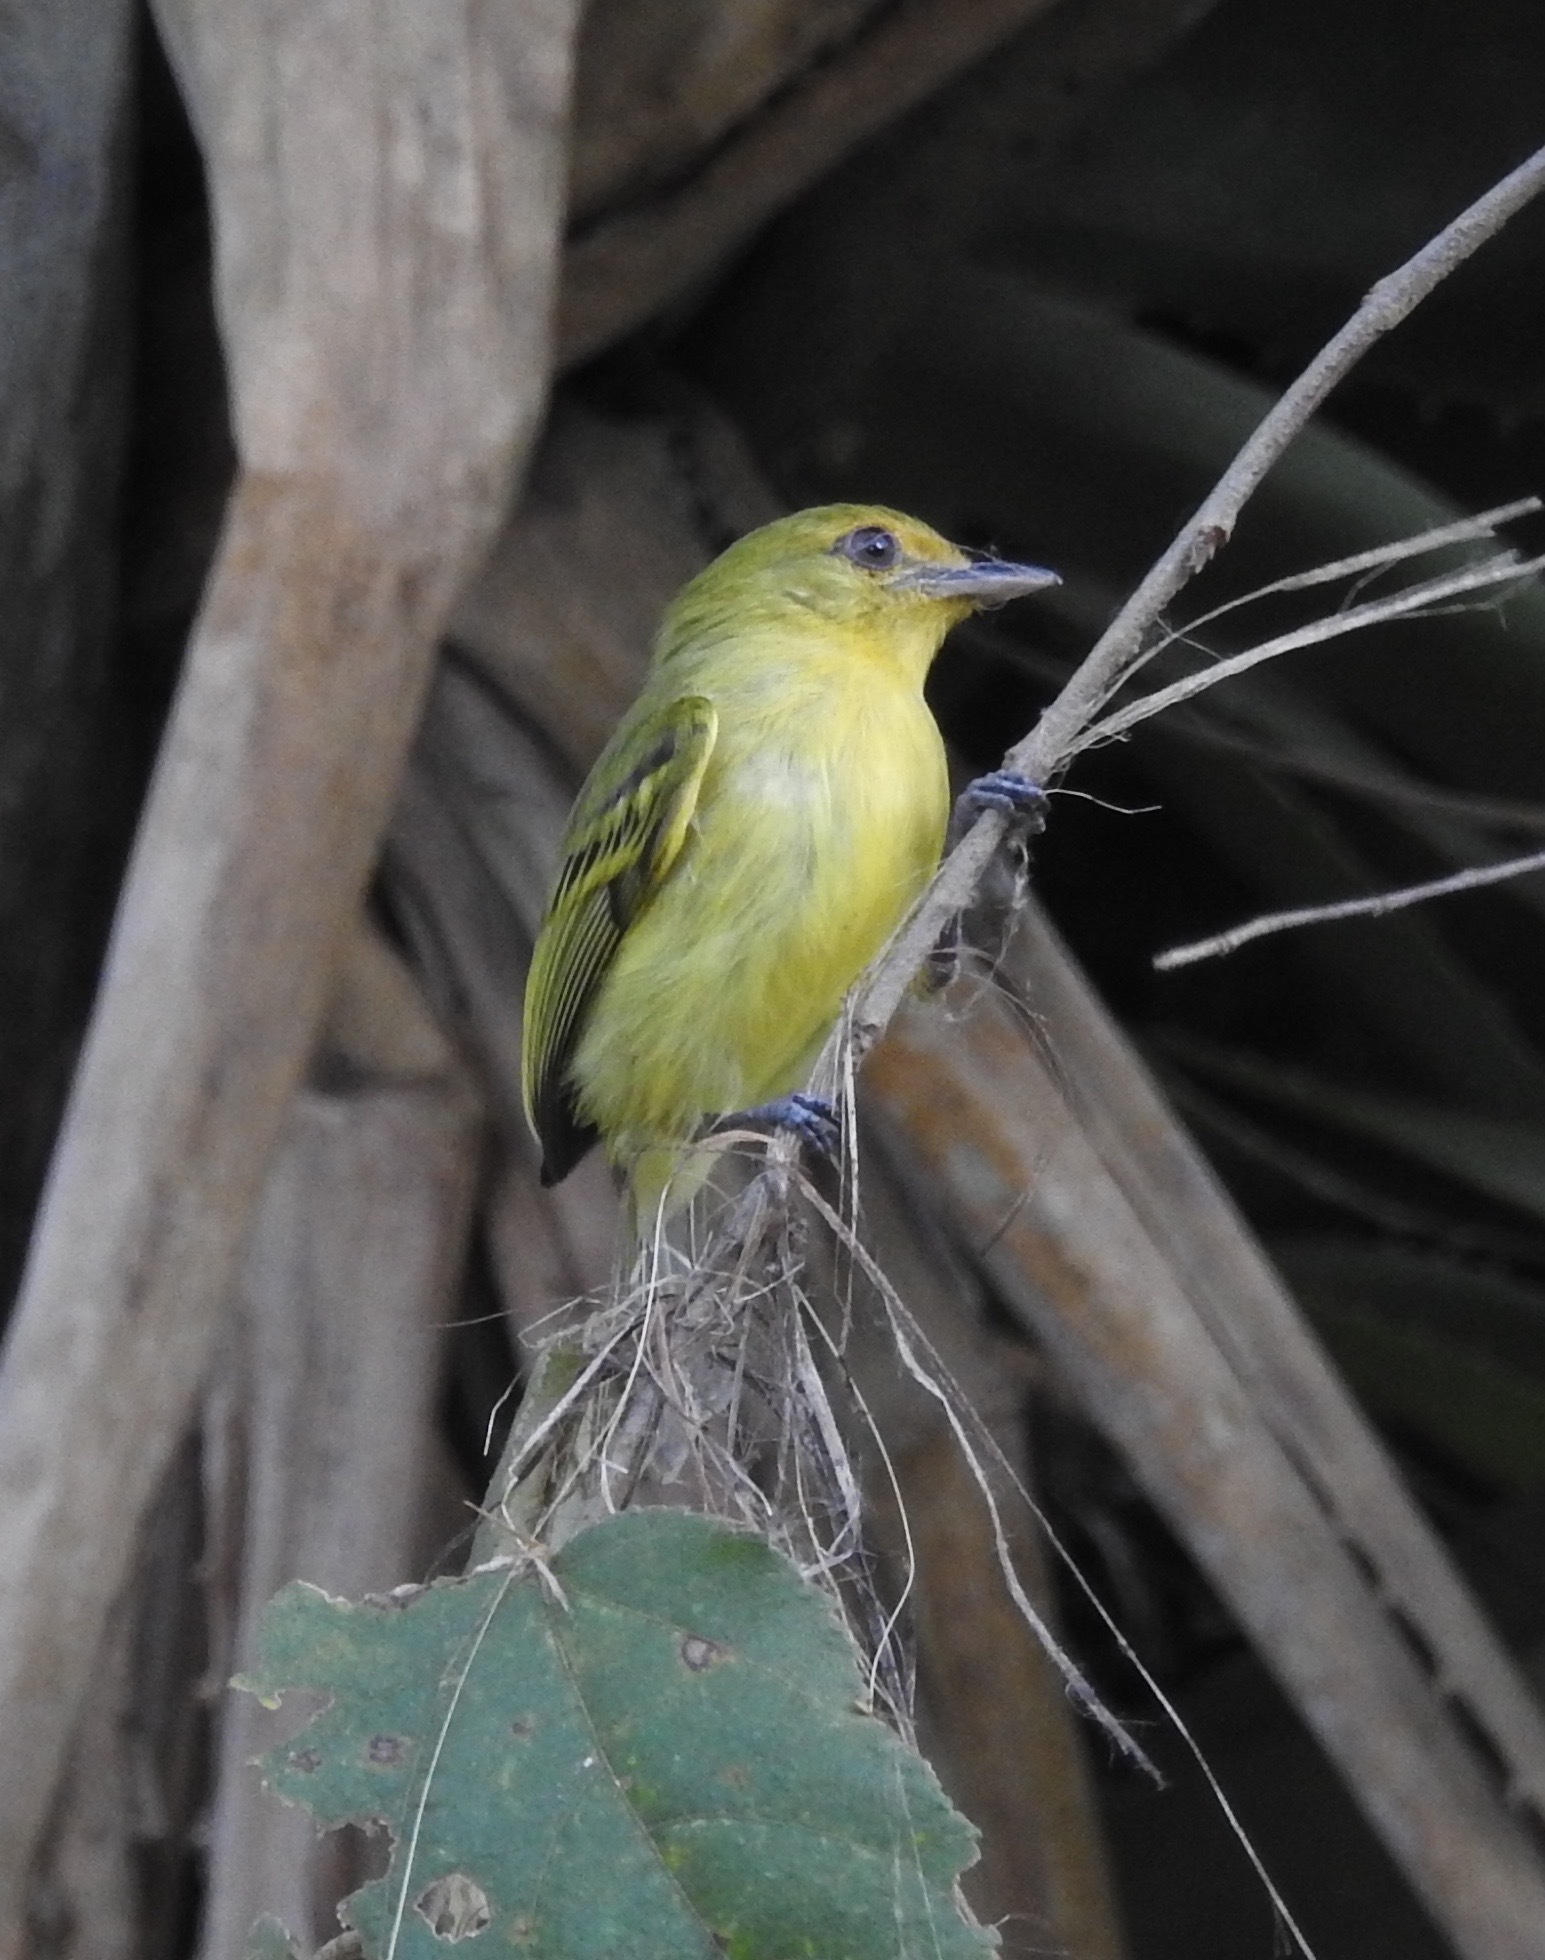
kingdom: Animalia
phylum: Chordata
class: Aves
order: Passeriformes
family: Tyrannidae
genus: Tolmomyias
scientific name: Tolmomyias flaviventris
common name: Ochre-lored flatbill
